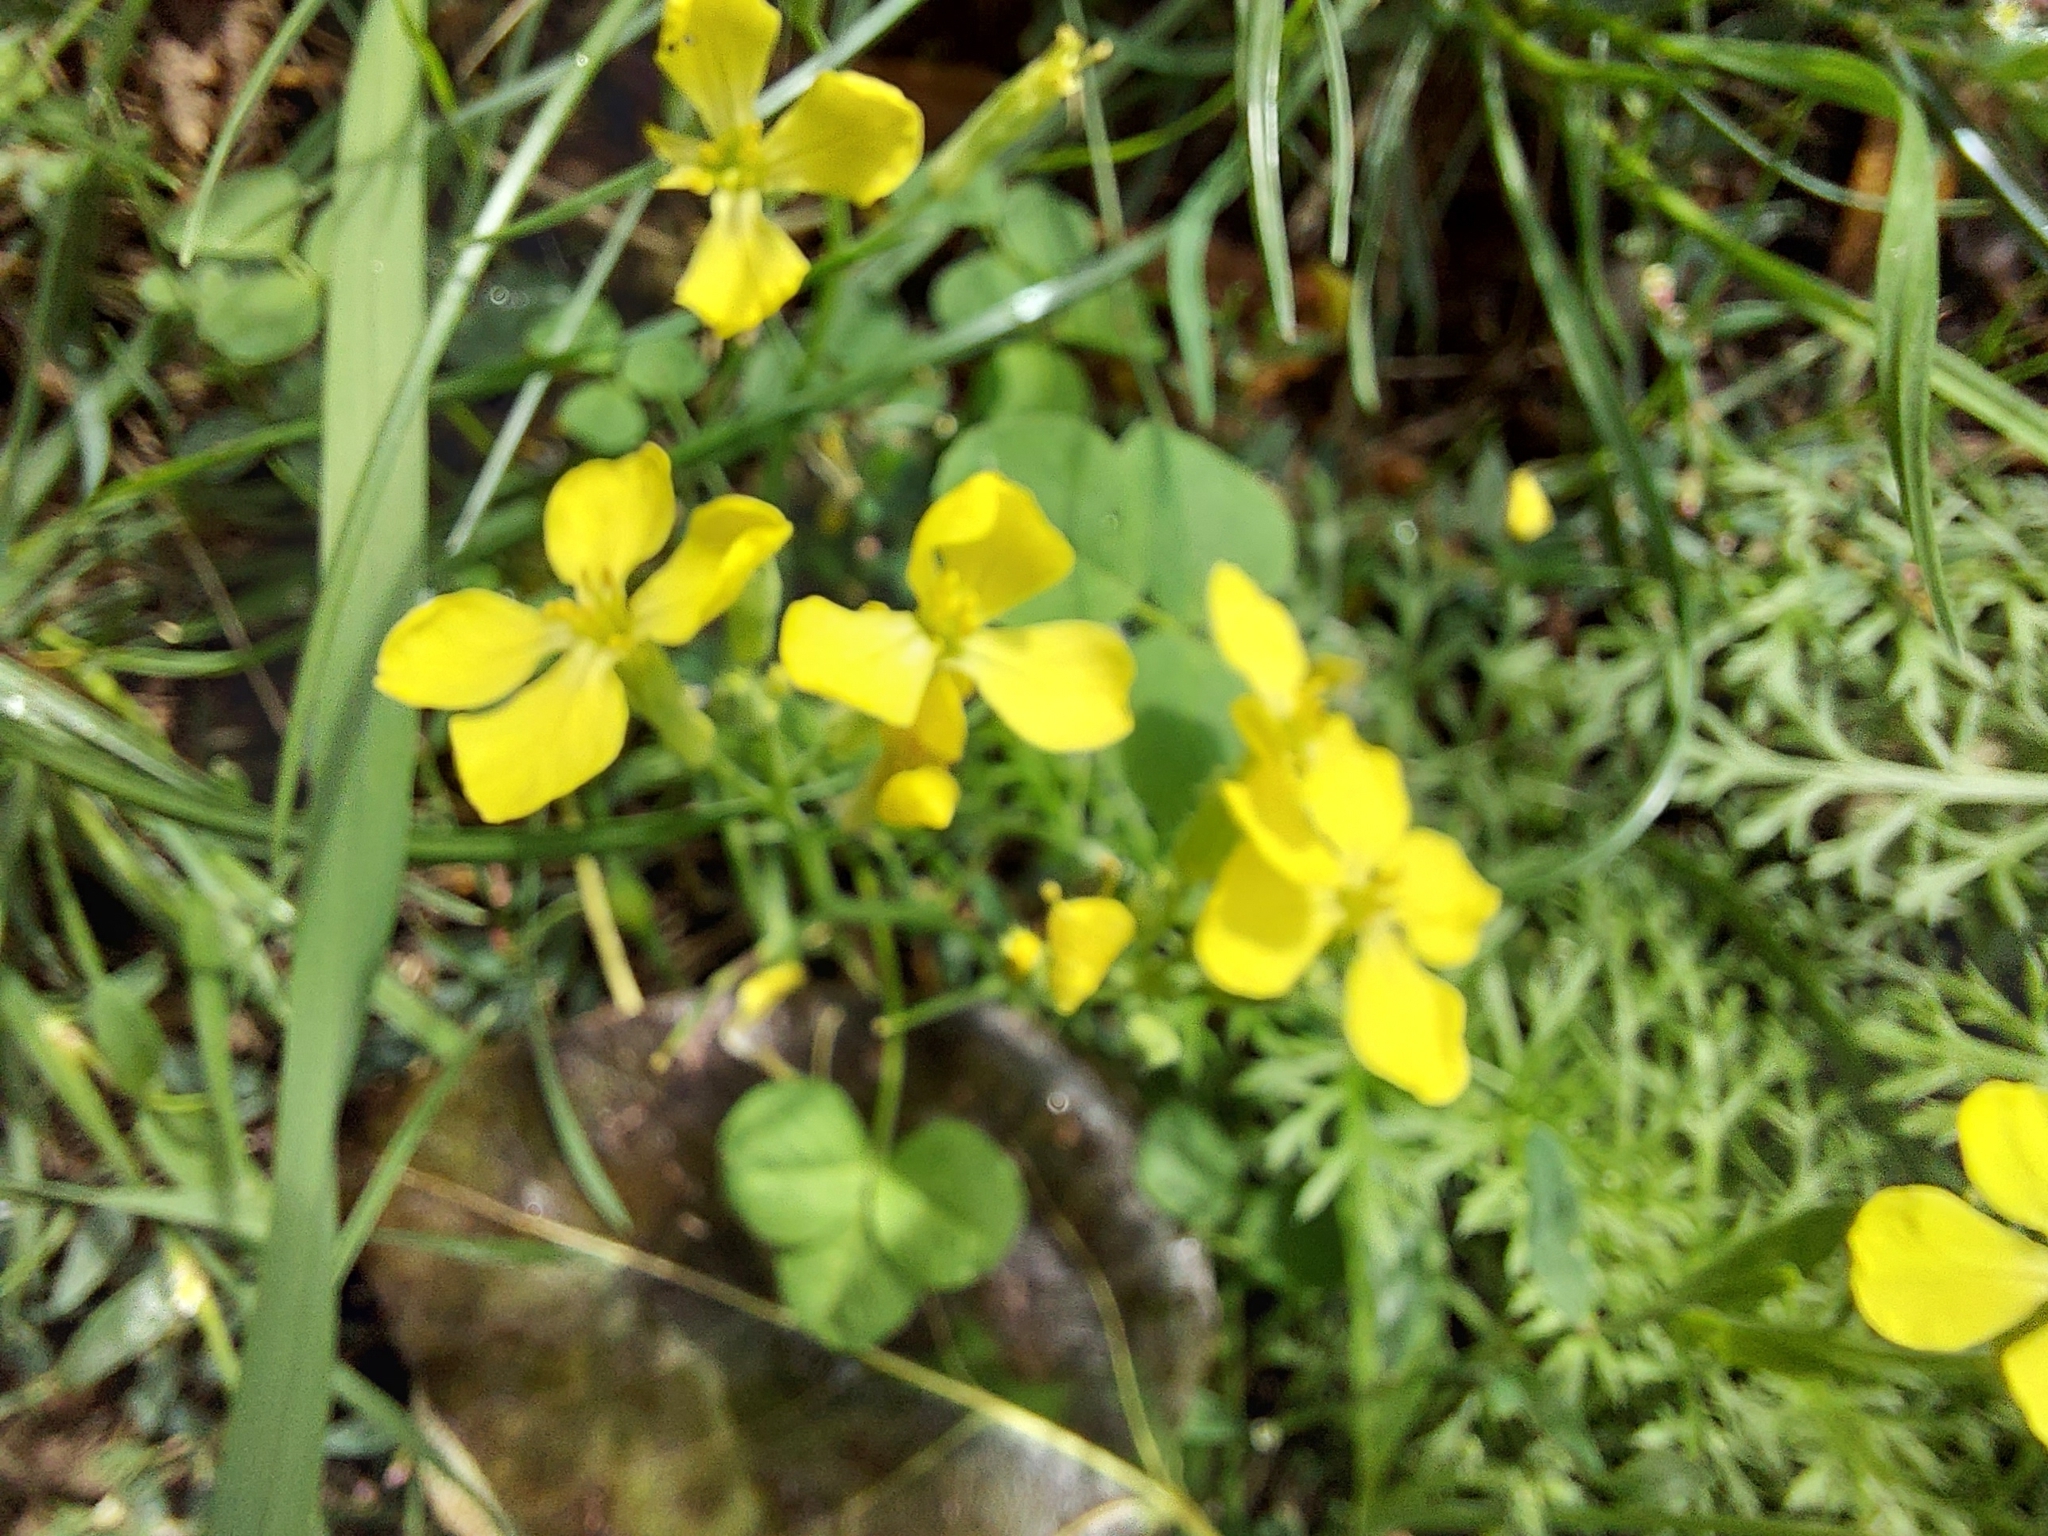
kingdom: Plantae
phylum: Tracheophyta
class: Magnoliopsida
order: Brassicales
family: Brassicaceae
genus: Raphanus
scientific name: Raphanus raphanistrum
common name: Wild radish
